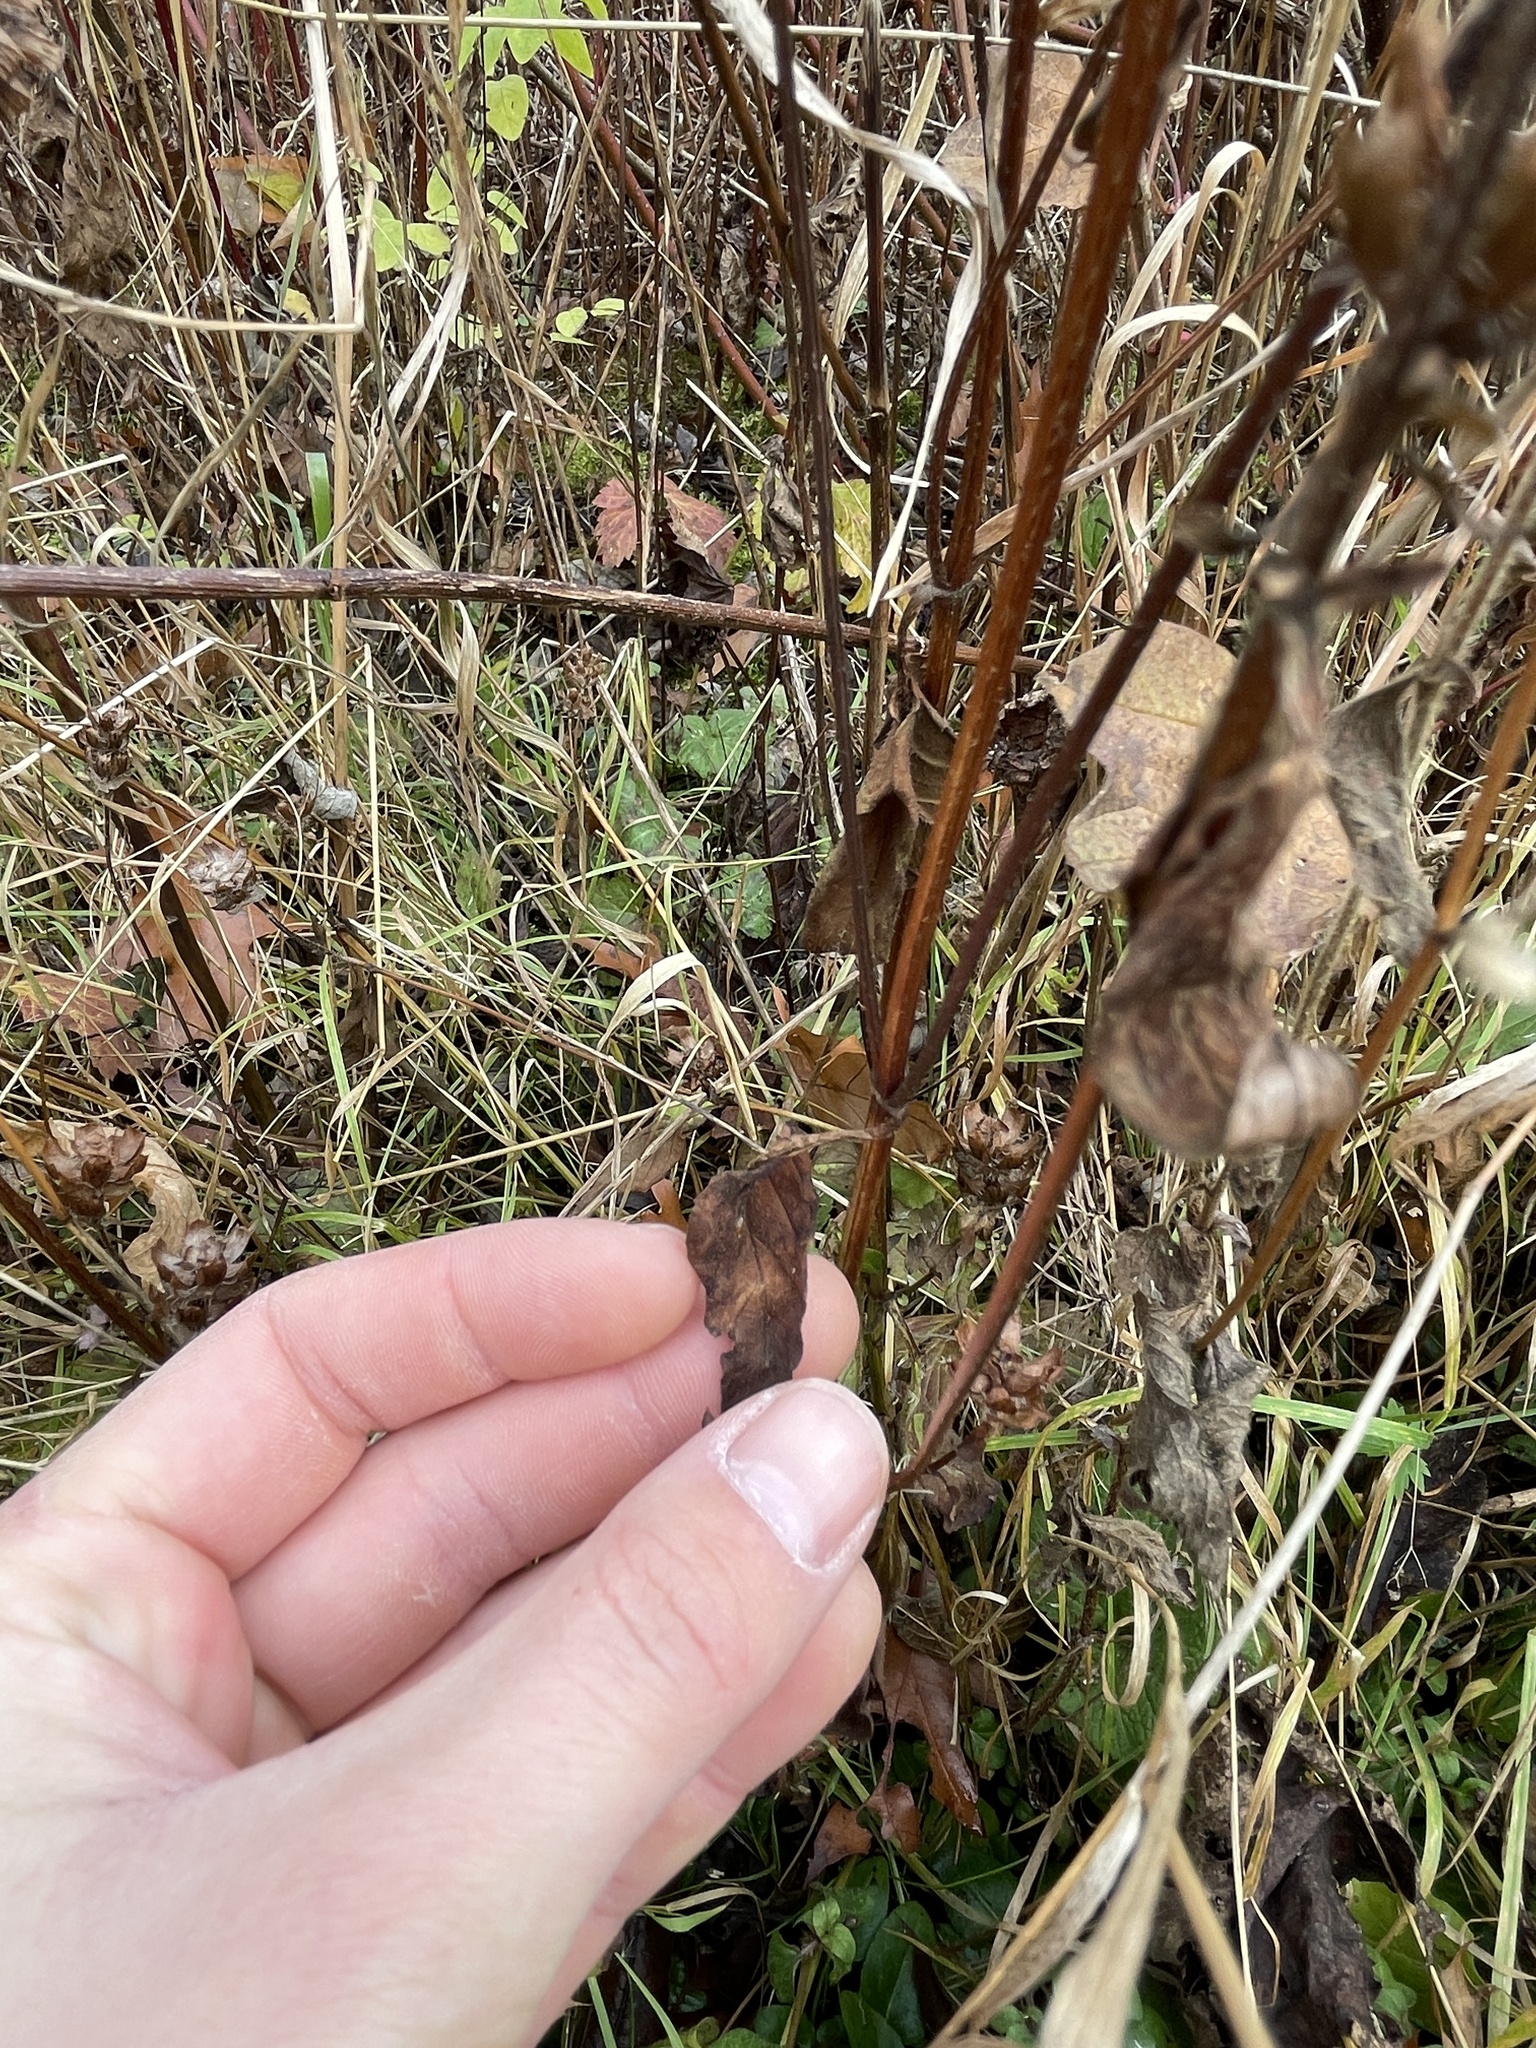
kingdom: Plantae
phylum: Tracheophyta
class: Magnoliopsida
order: Lamiales
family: Lamiaceae
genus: Prunella
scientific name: Prunella vulgaris
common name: Heal-all
